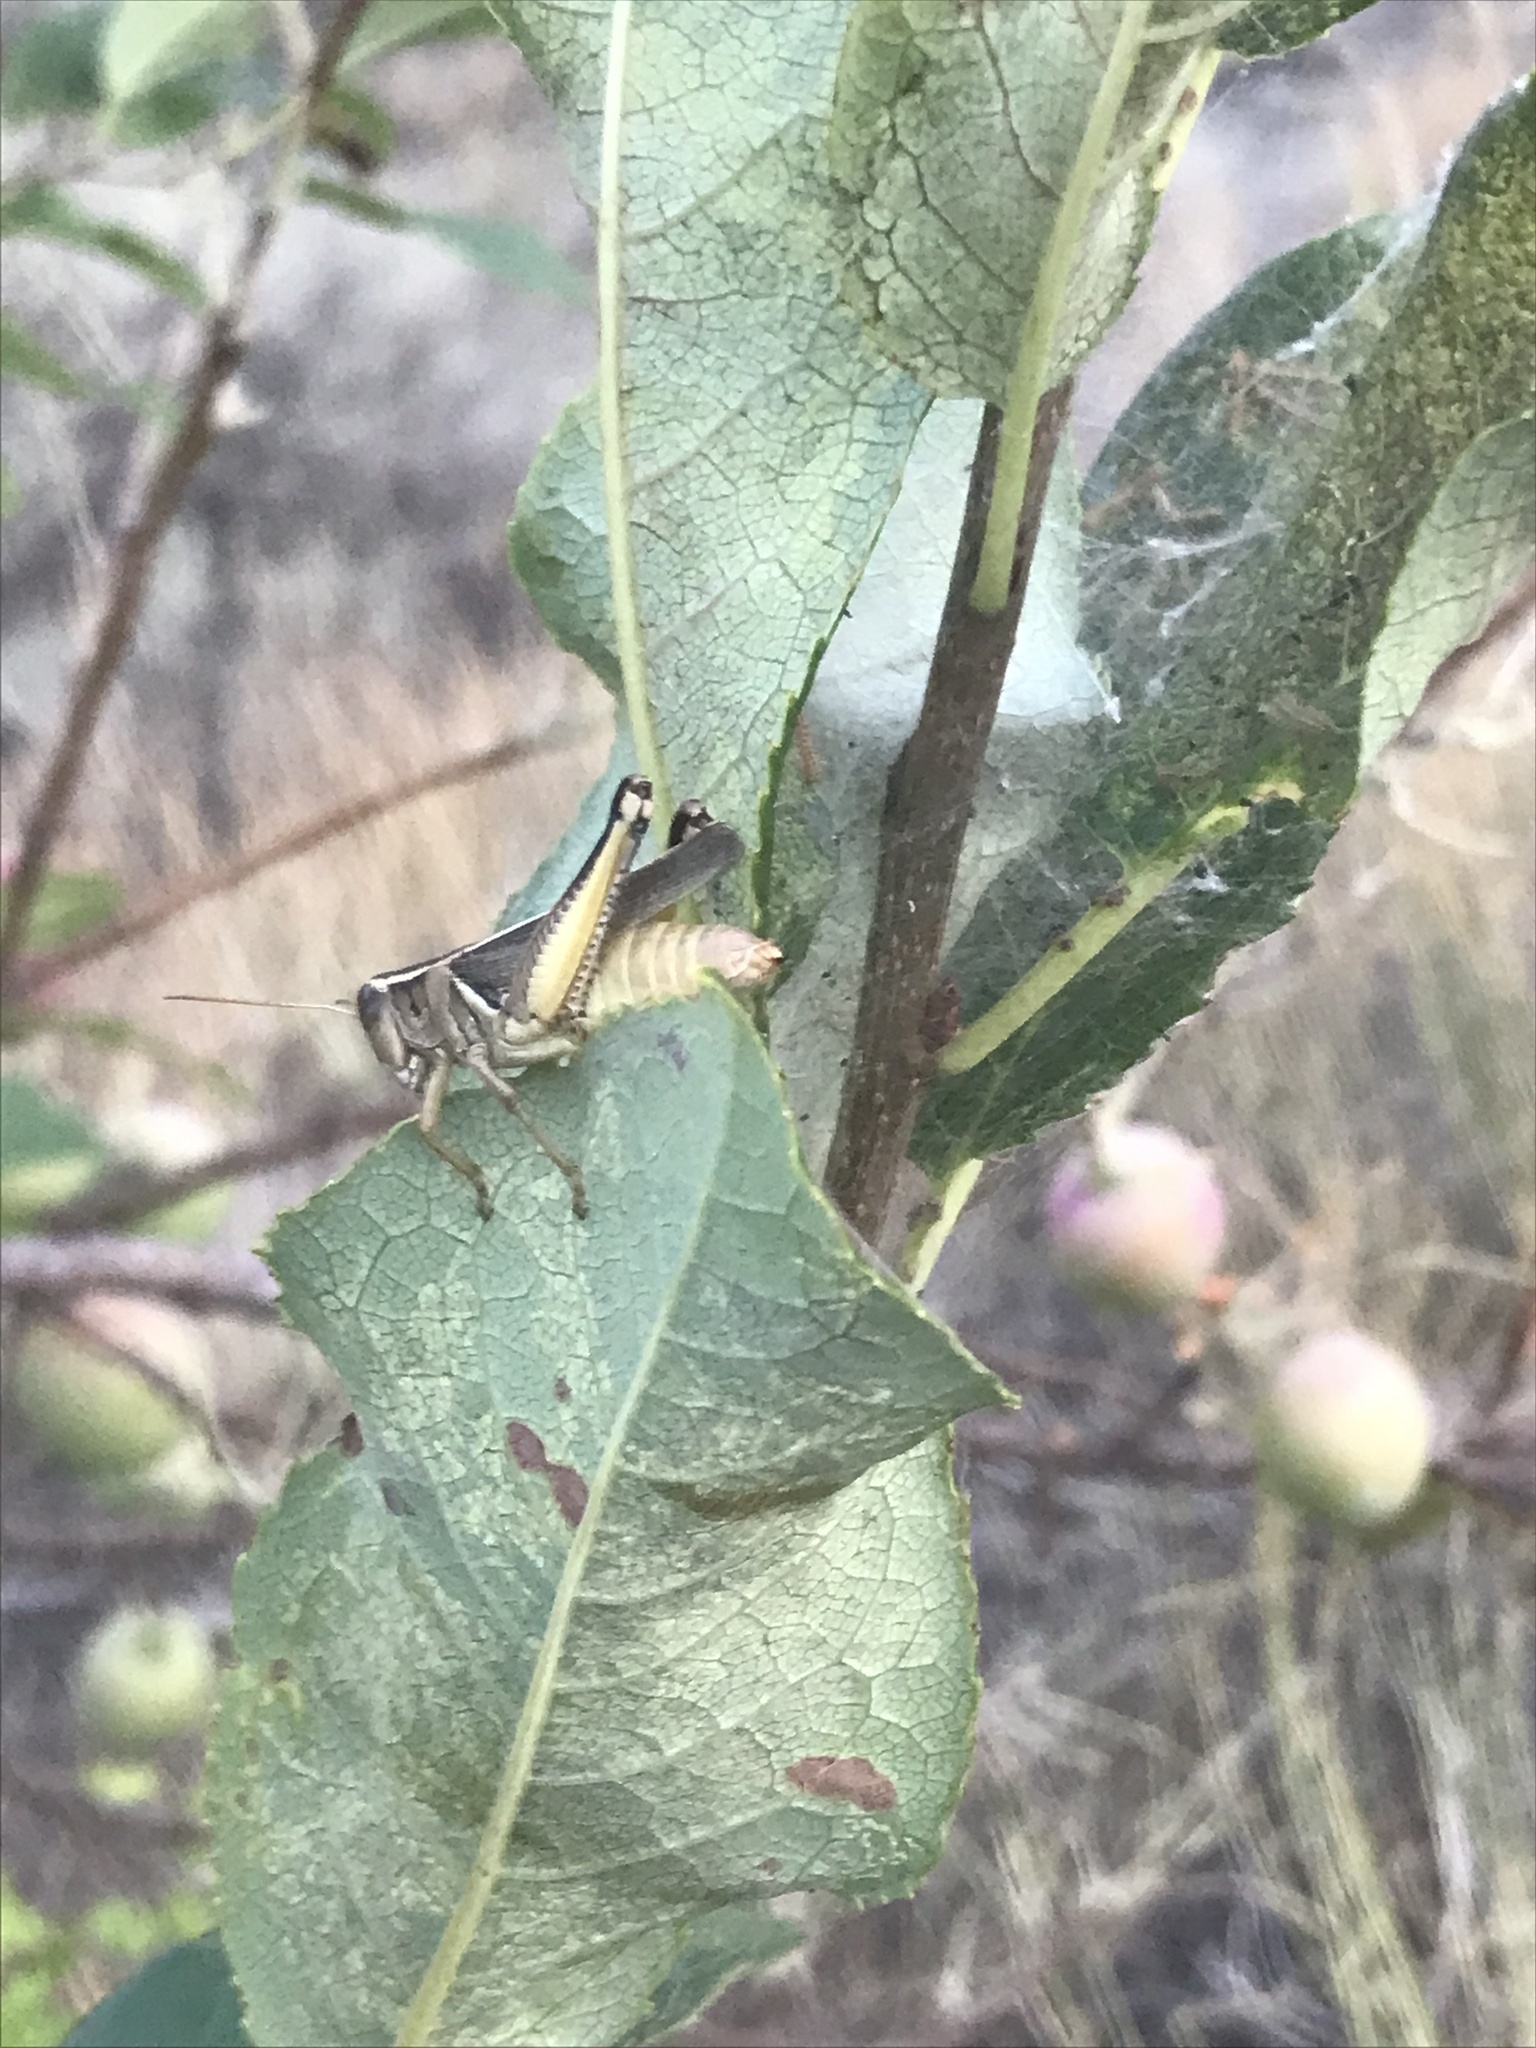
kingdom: Animalia
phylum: Arthropoda
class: Insecta
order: Orthoptera
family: Acrididae
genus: Melanoplus
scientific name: Melanoplus bivittatus
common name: Two-striped grasshopper
